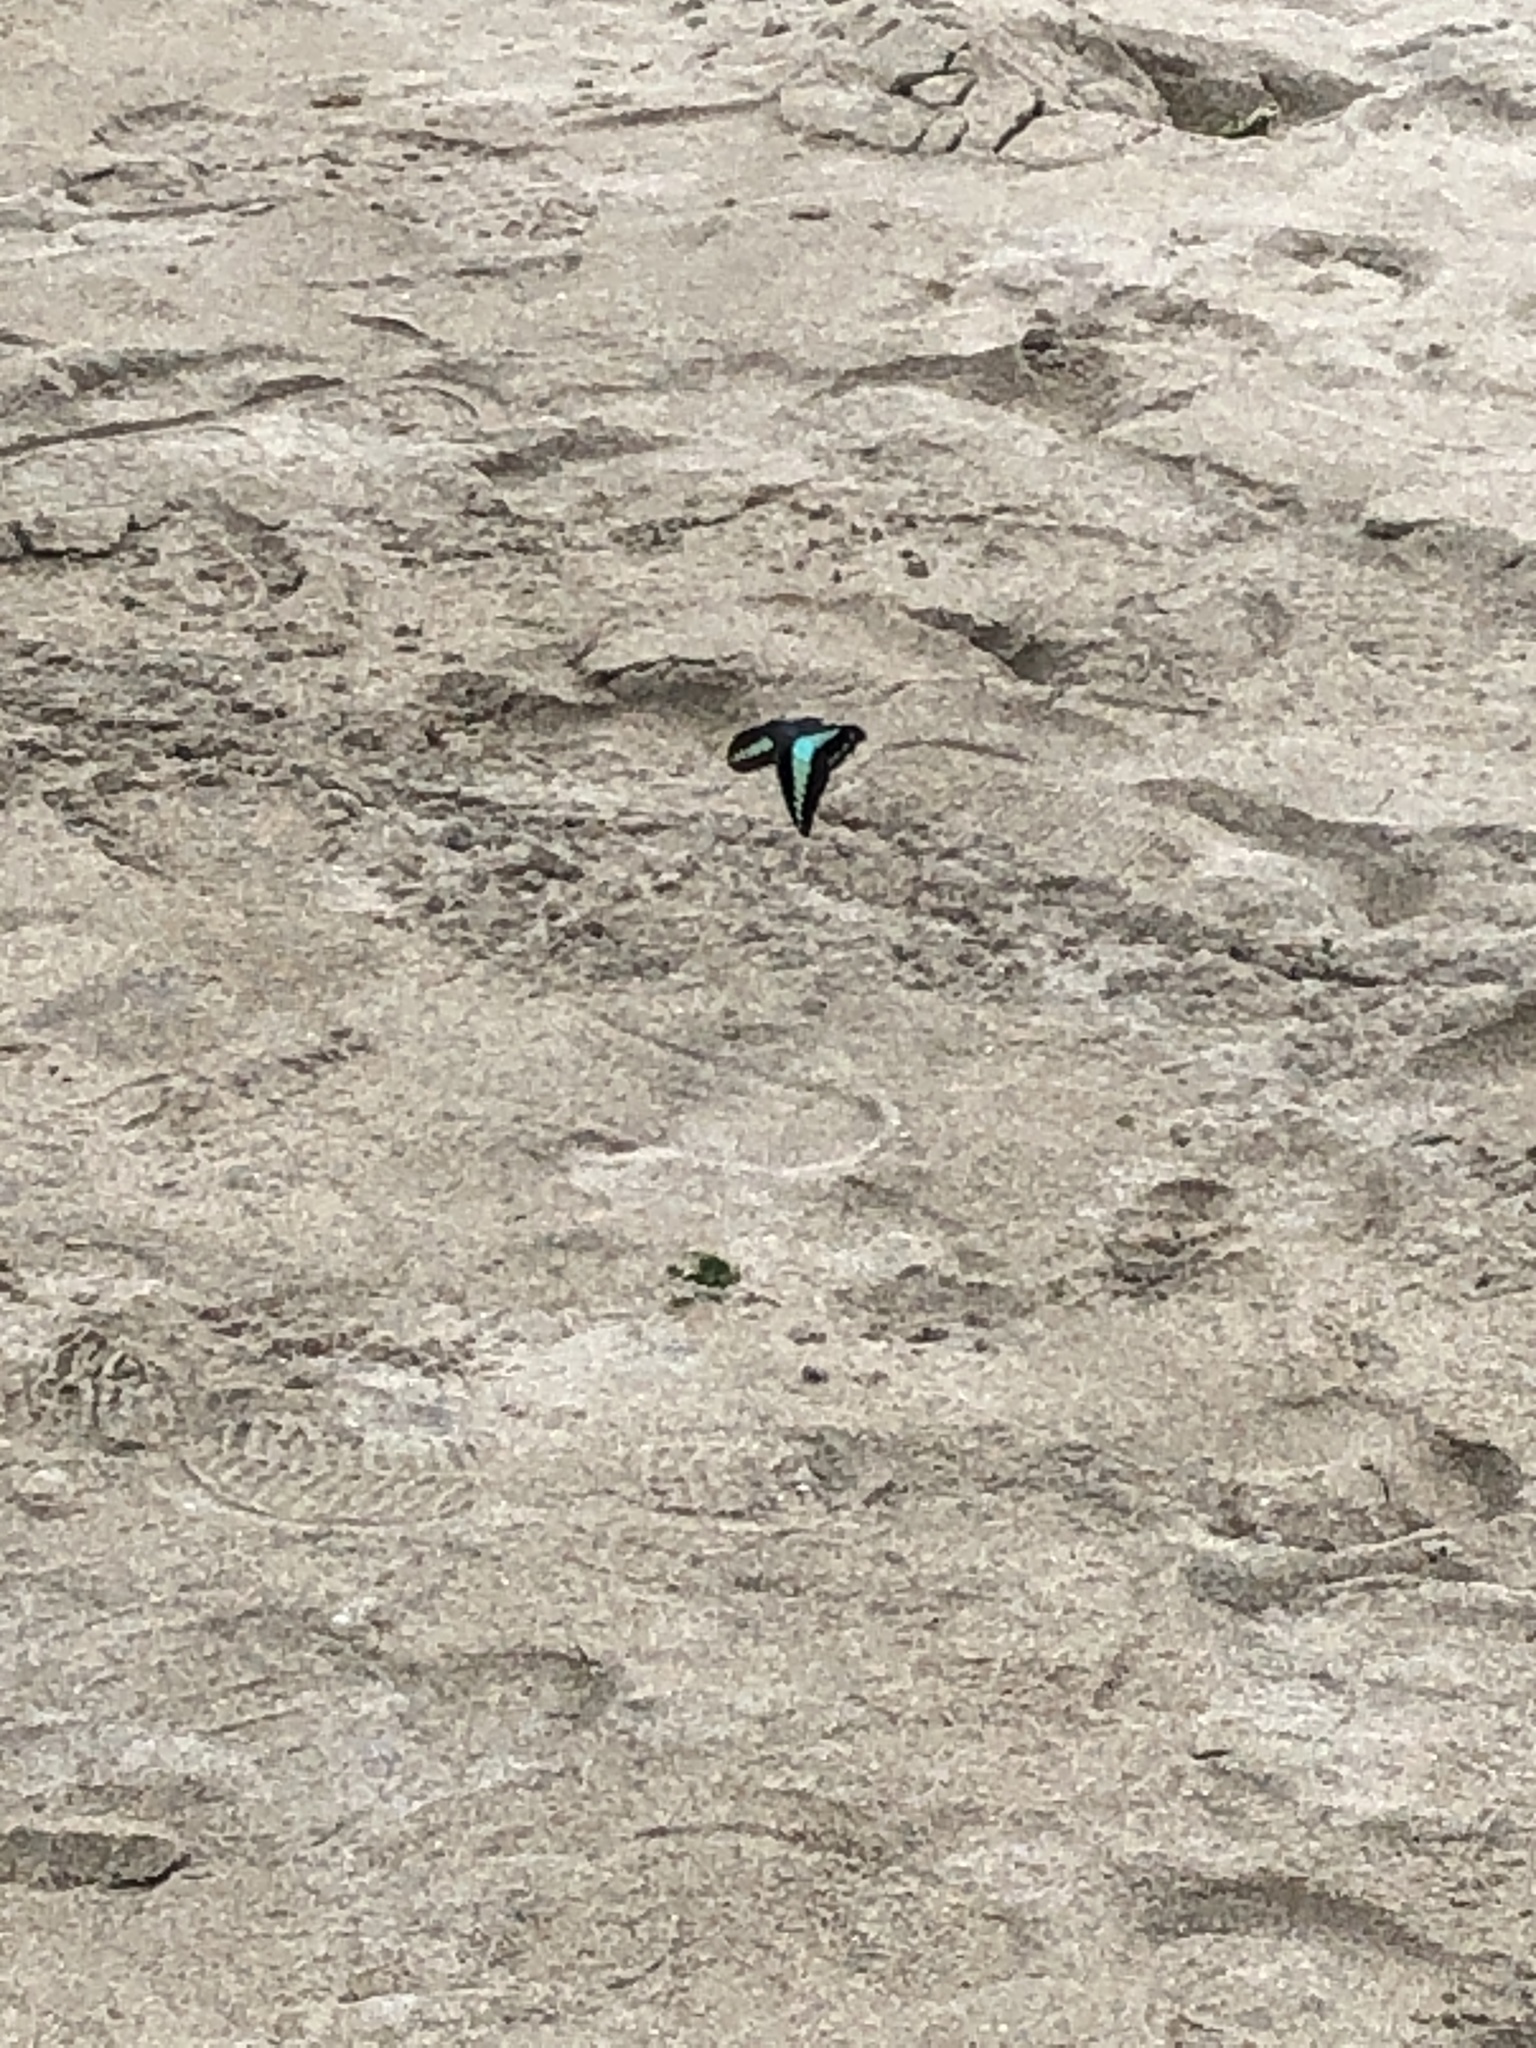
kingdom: Fungi
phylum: Ascomycota
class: Sordariomycetes
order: Microascales
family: Microascaceae
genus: Graphium
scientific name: Graphium sarpedon
